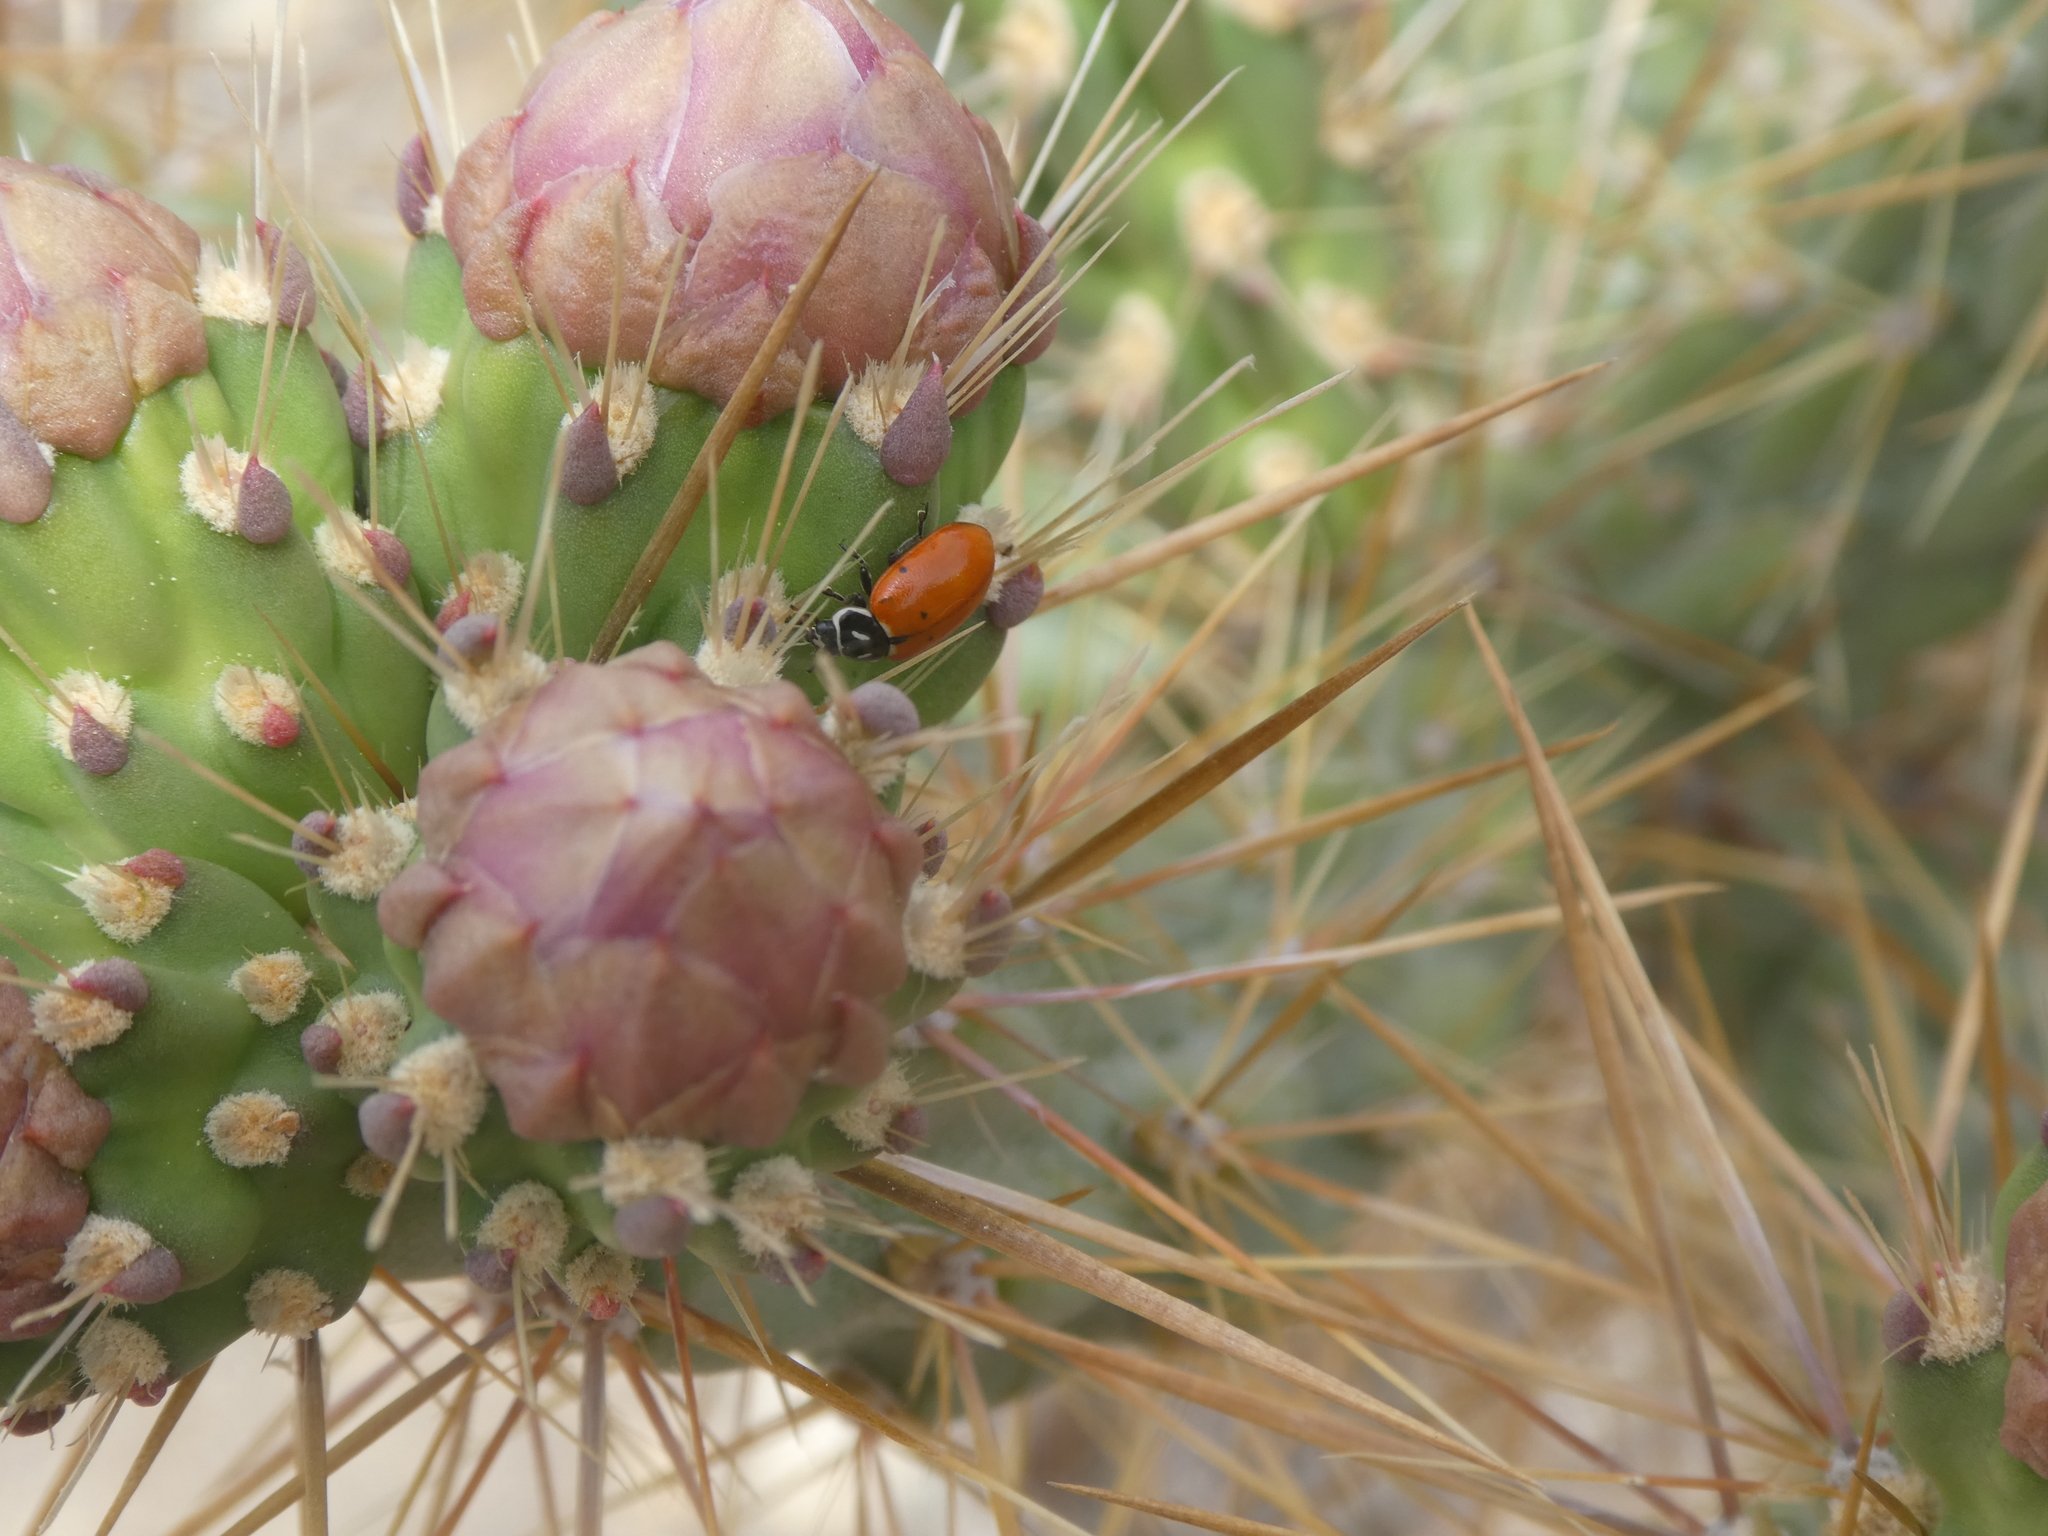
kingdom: Animalia
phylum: Arthropoda
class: Insecta
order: Coleoptera
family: Coccinellidae
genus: Hippodamia
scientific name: Hippodamia convergens
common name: Convergent lady beetle
